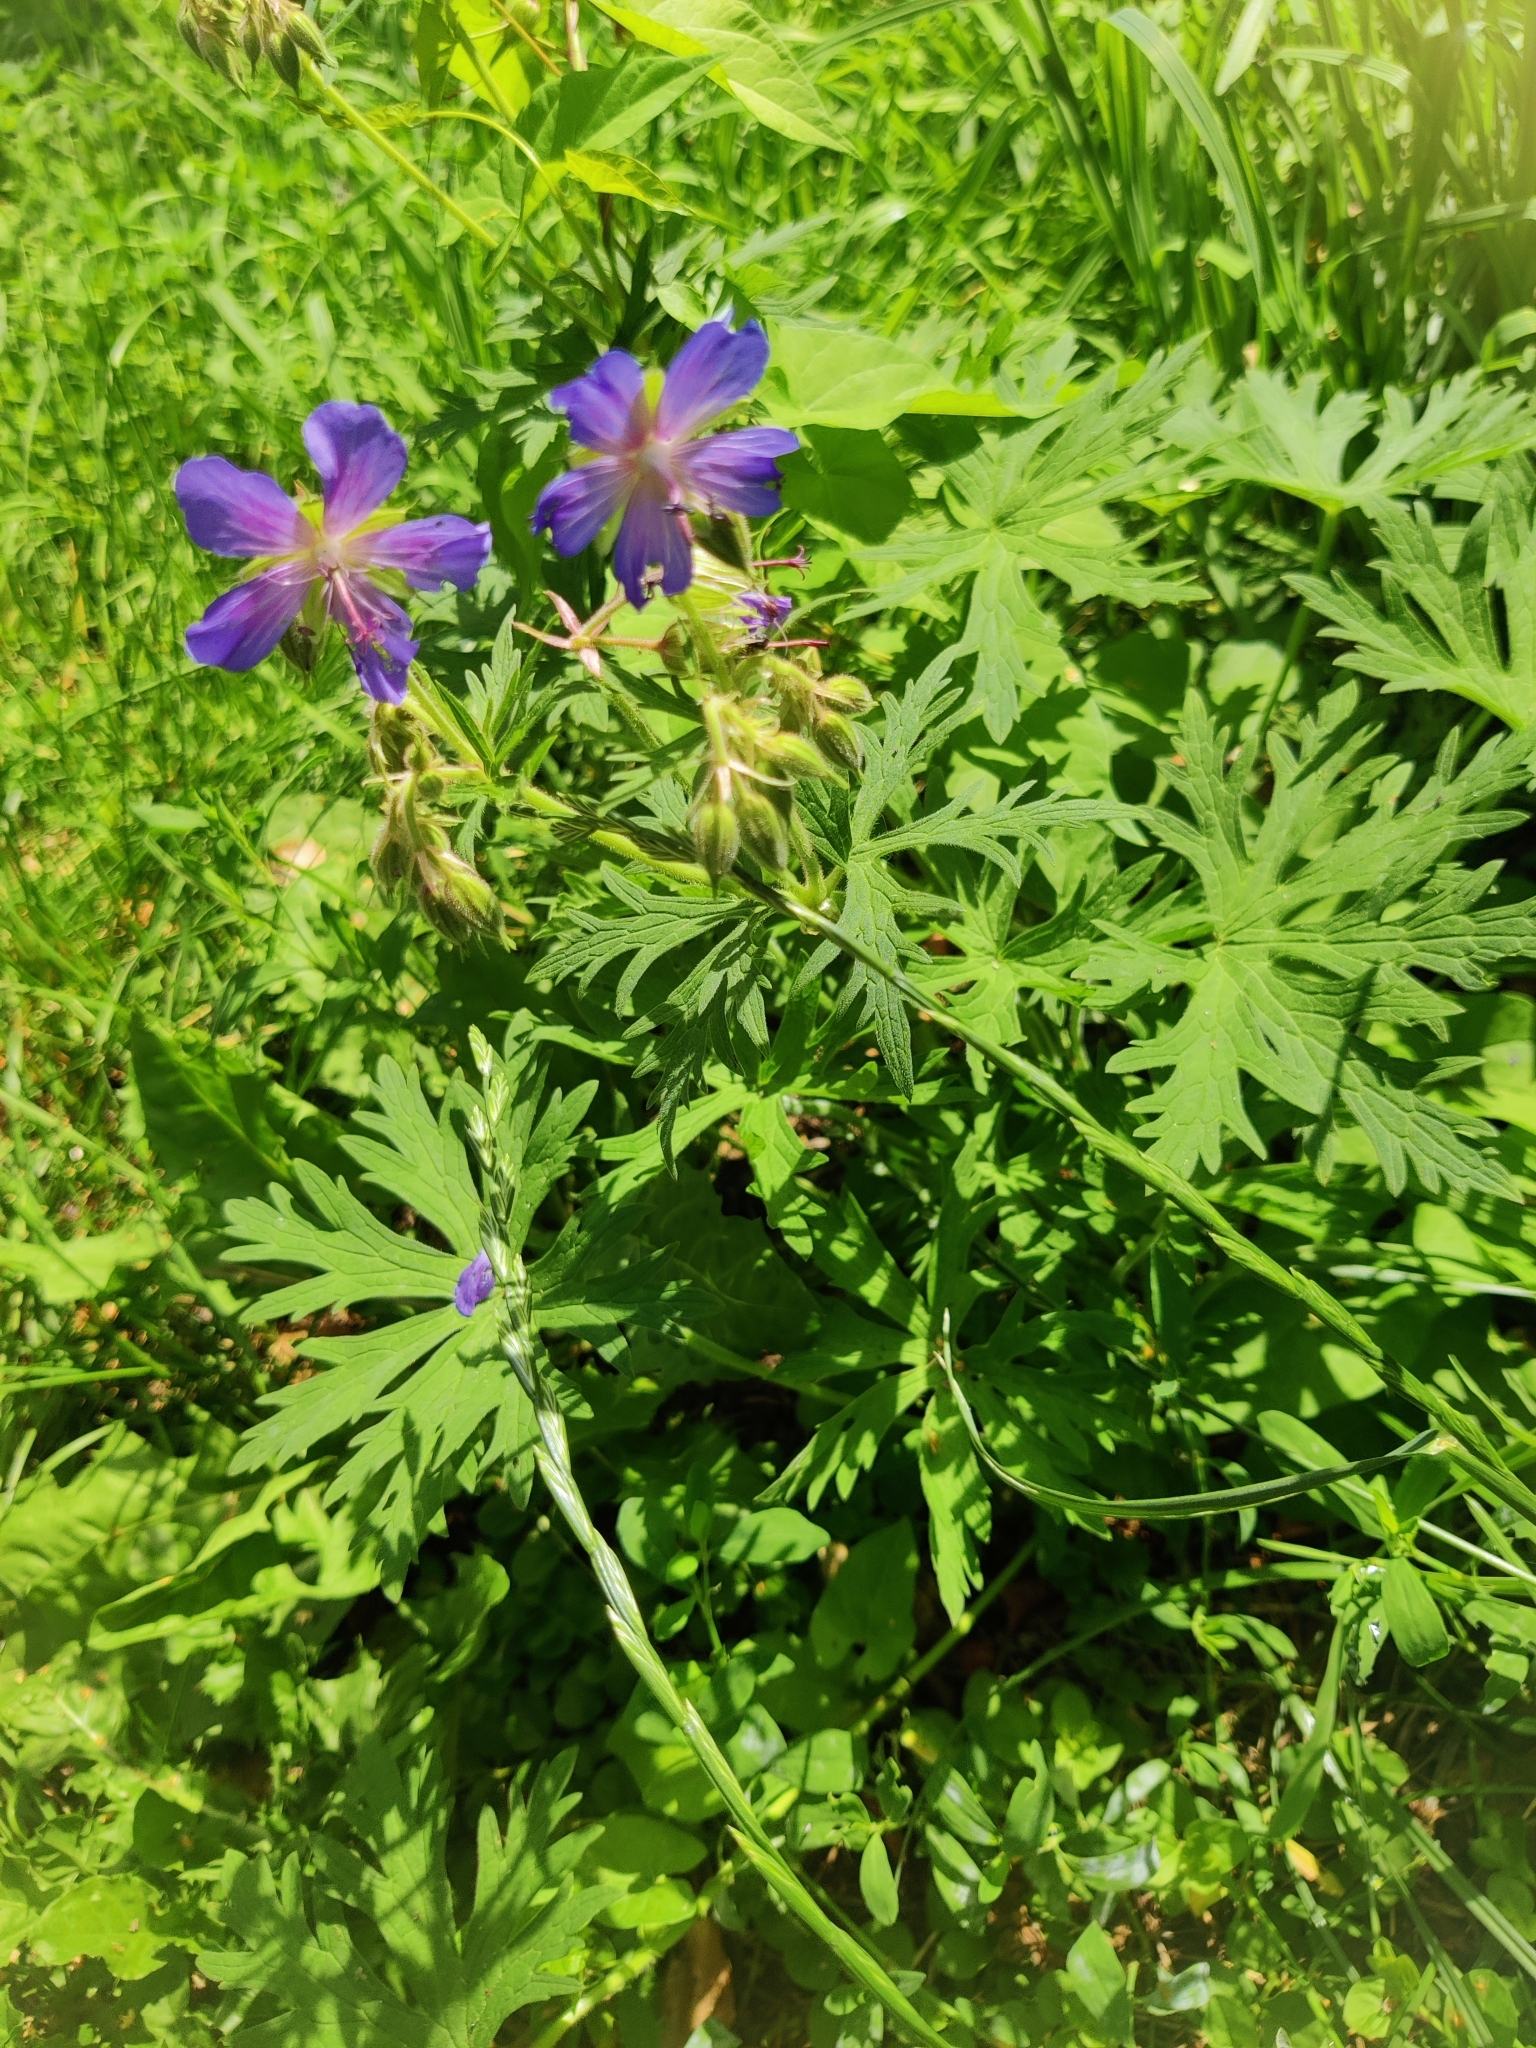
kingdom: Plantae
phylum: Tracheophyta
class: Magnoliopsida
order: Geraniales
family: Geraniaceae
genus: Geranium
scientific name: Geranium pratense
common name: Meadow crane's-bill
